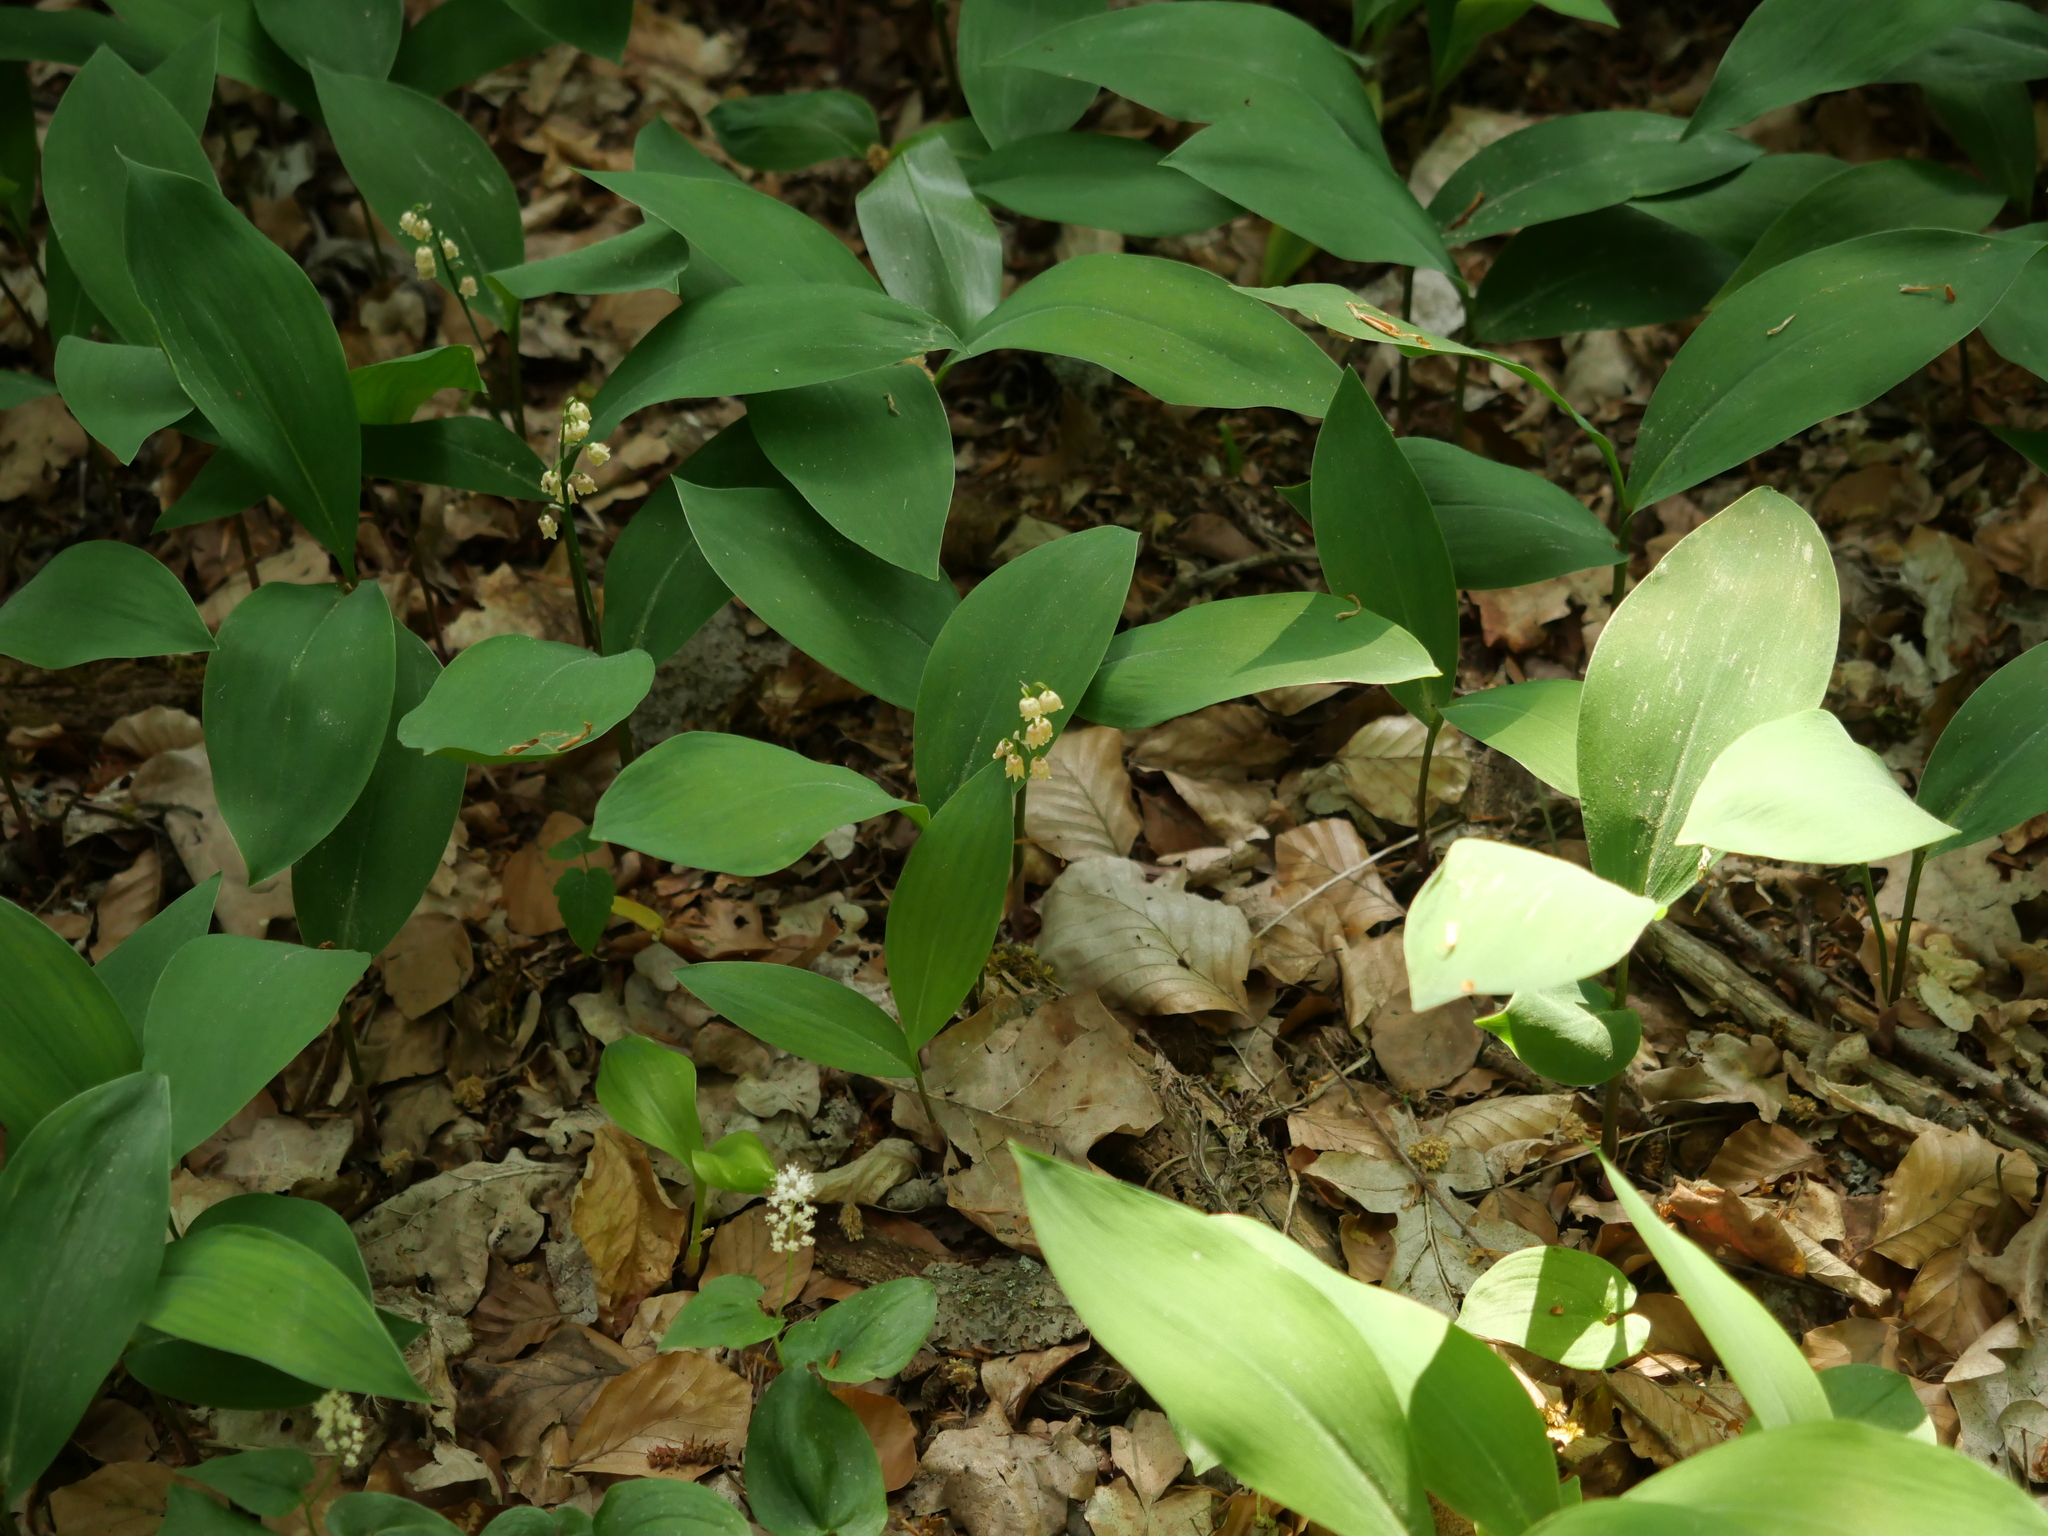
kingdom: Plantae
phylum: Tracheophyta
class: Liliopsida
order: Asparagales
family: Asparagaceae
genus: Convallaria
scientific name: Convallaria majalis
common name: Lily-of-the-valley
